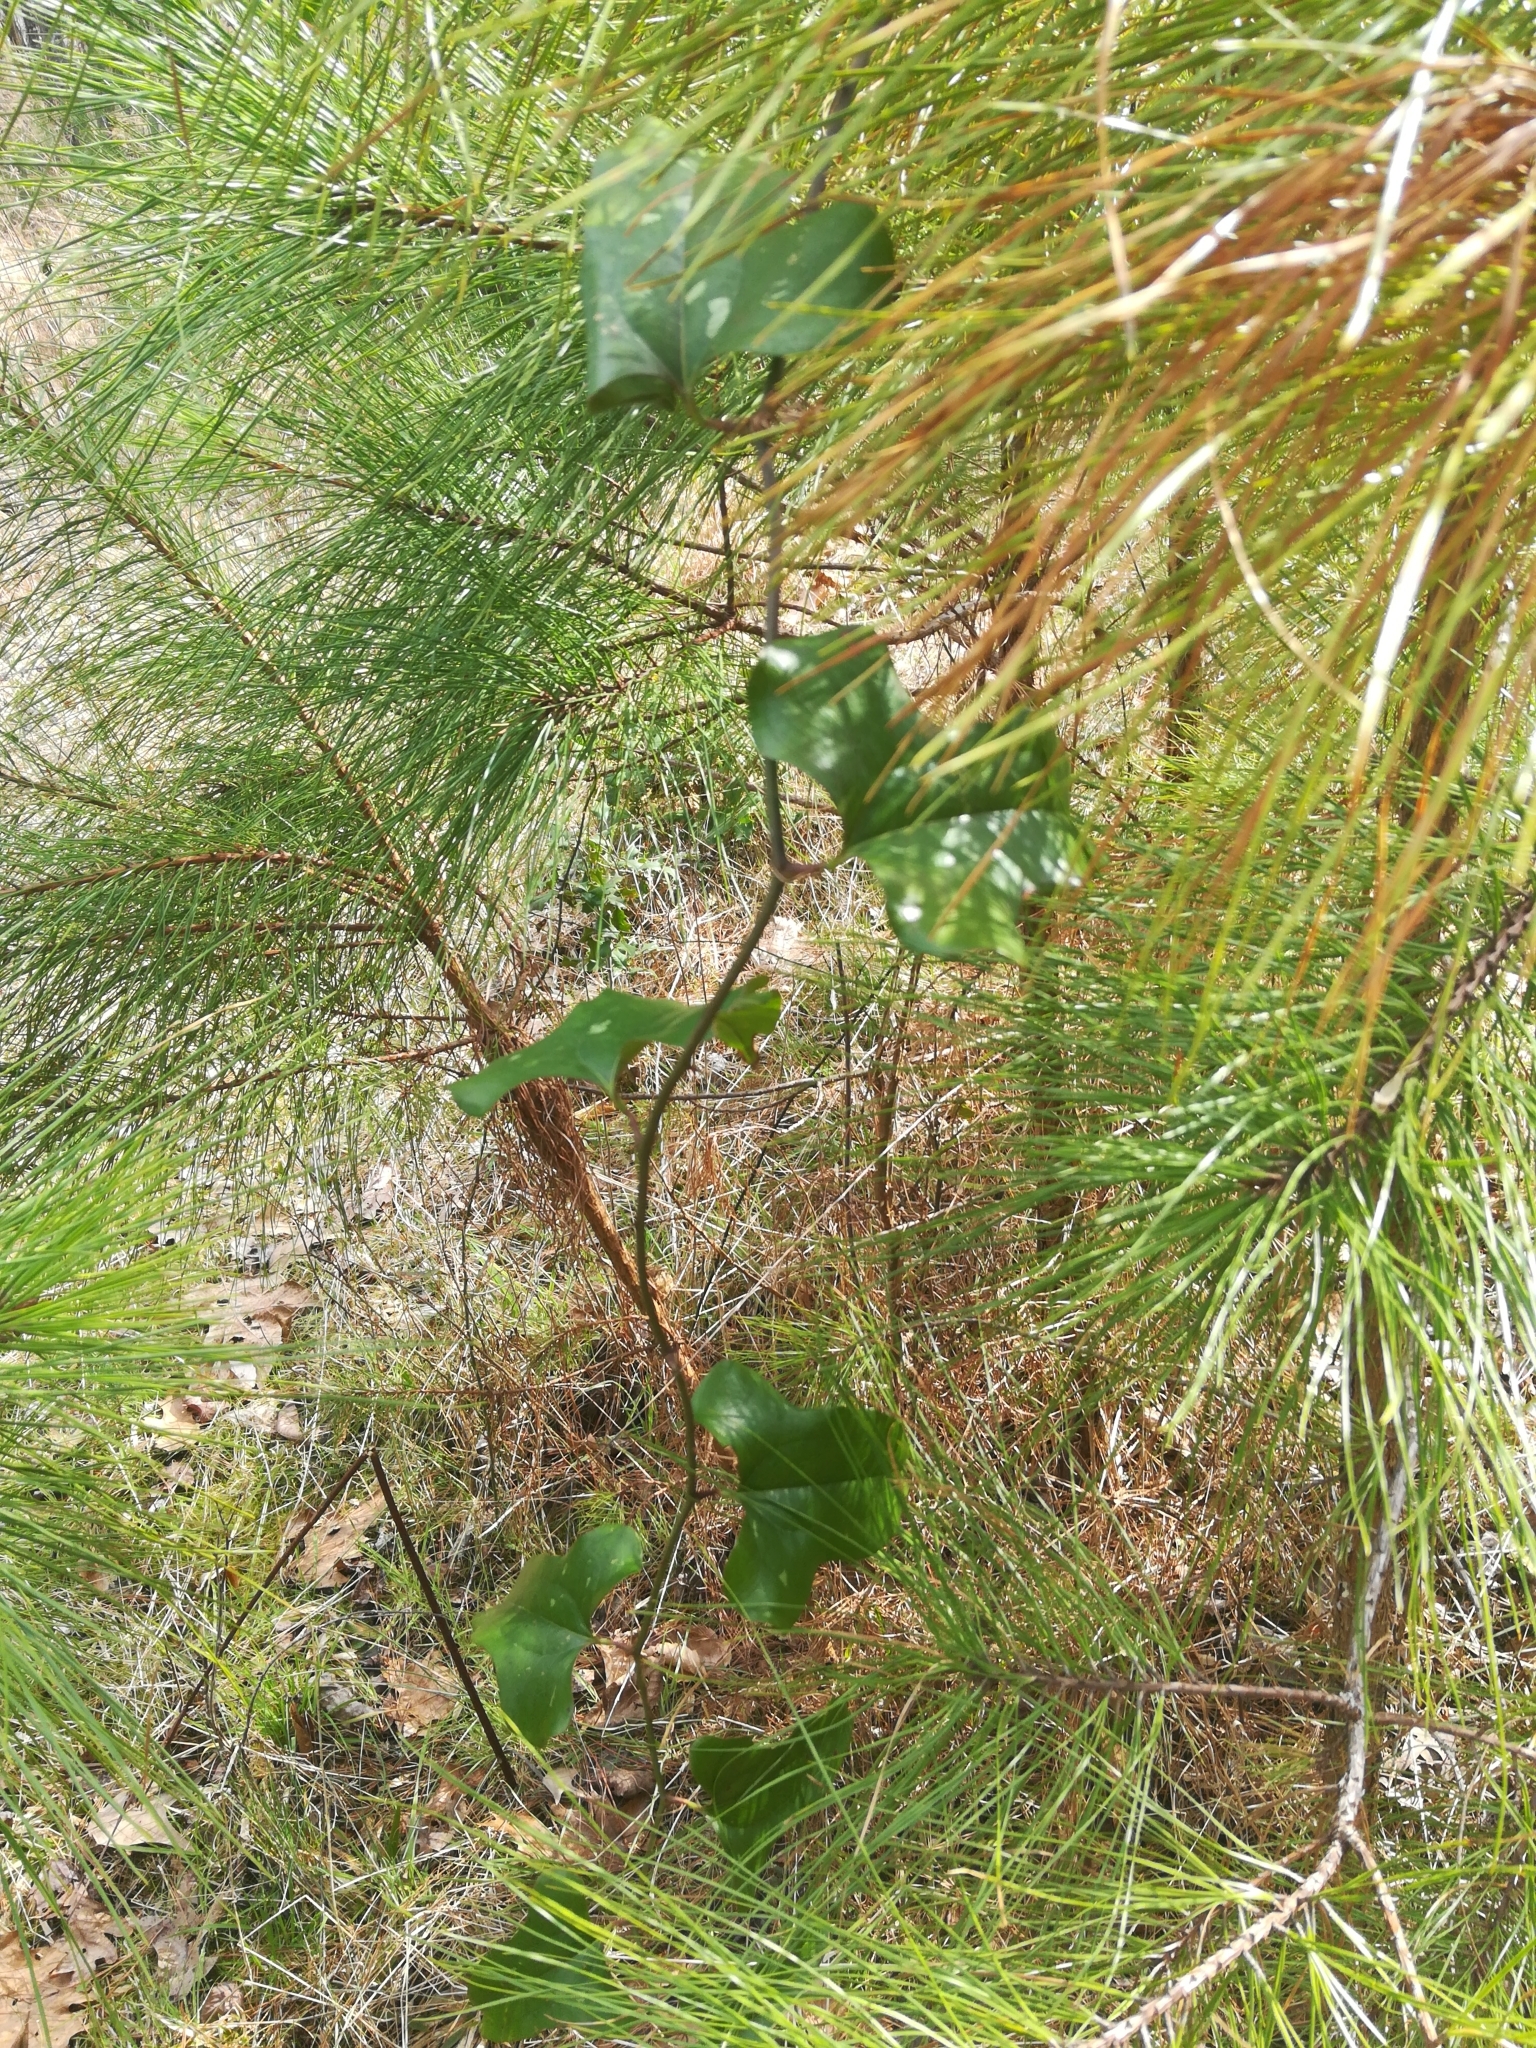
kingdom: Plantae
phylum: Tracheophyta
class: Liliopsida
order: Liliales
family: Smilacaceae
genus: Smilax
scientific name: Smilax bona-nox
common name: Catbrier
